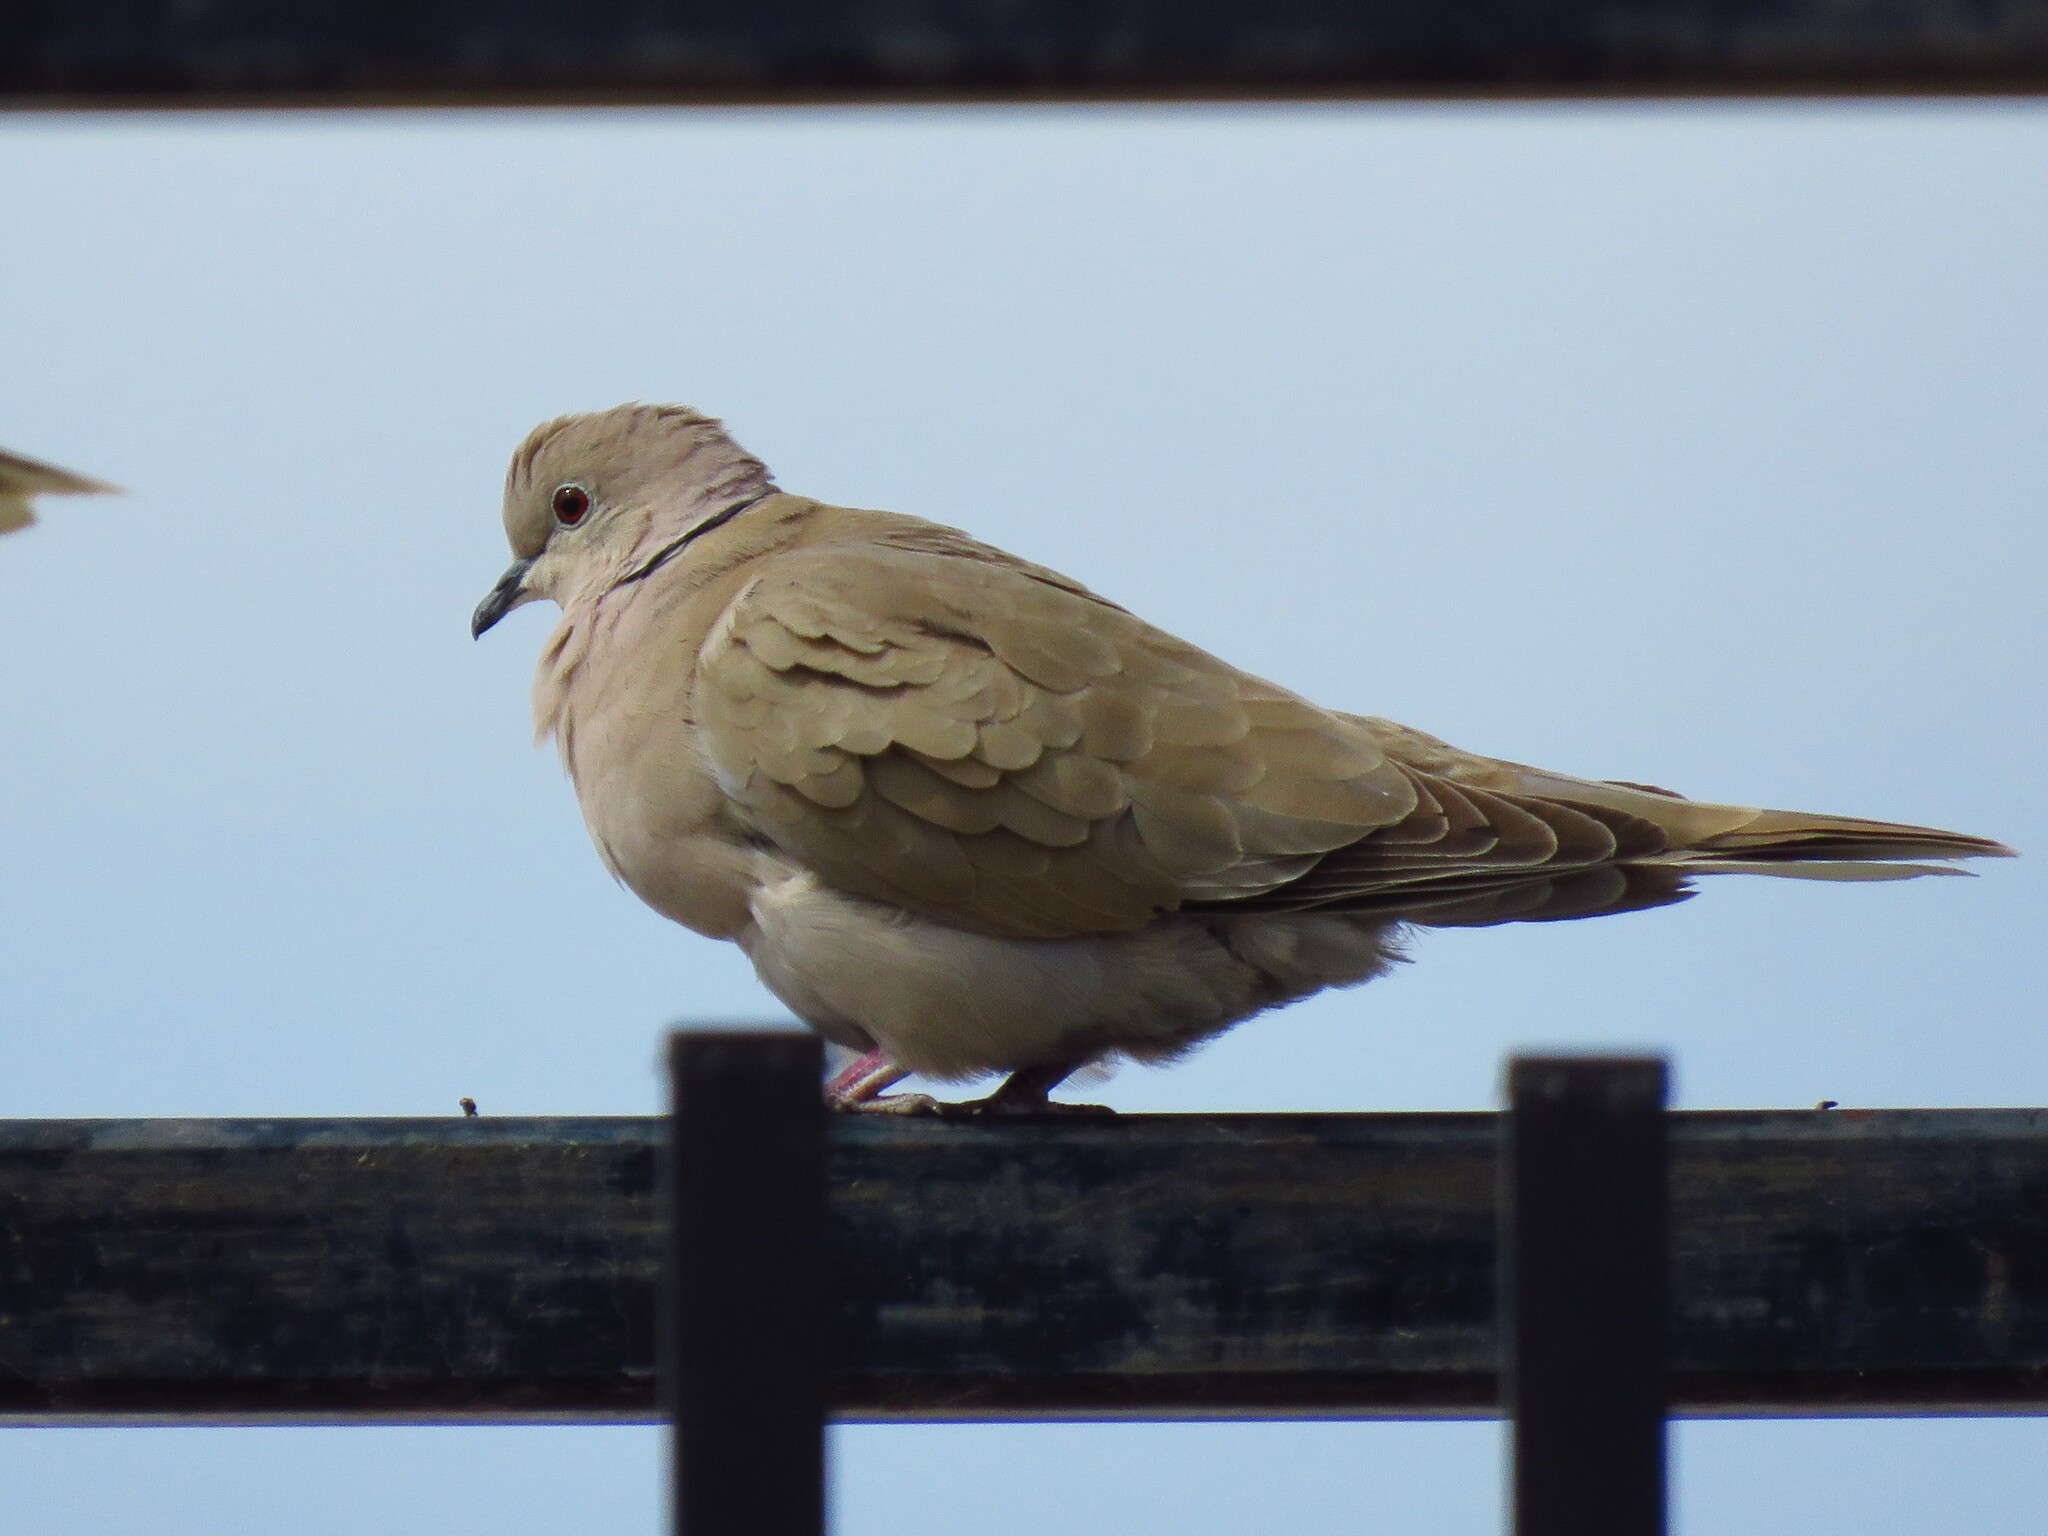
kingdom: Animalia
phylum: Chordata
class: Aves
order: Columbiformes
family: Columbidae
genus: Streptopelia
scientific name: Streptopelia decaocto
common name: Eurasian collared dove
